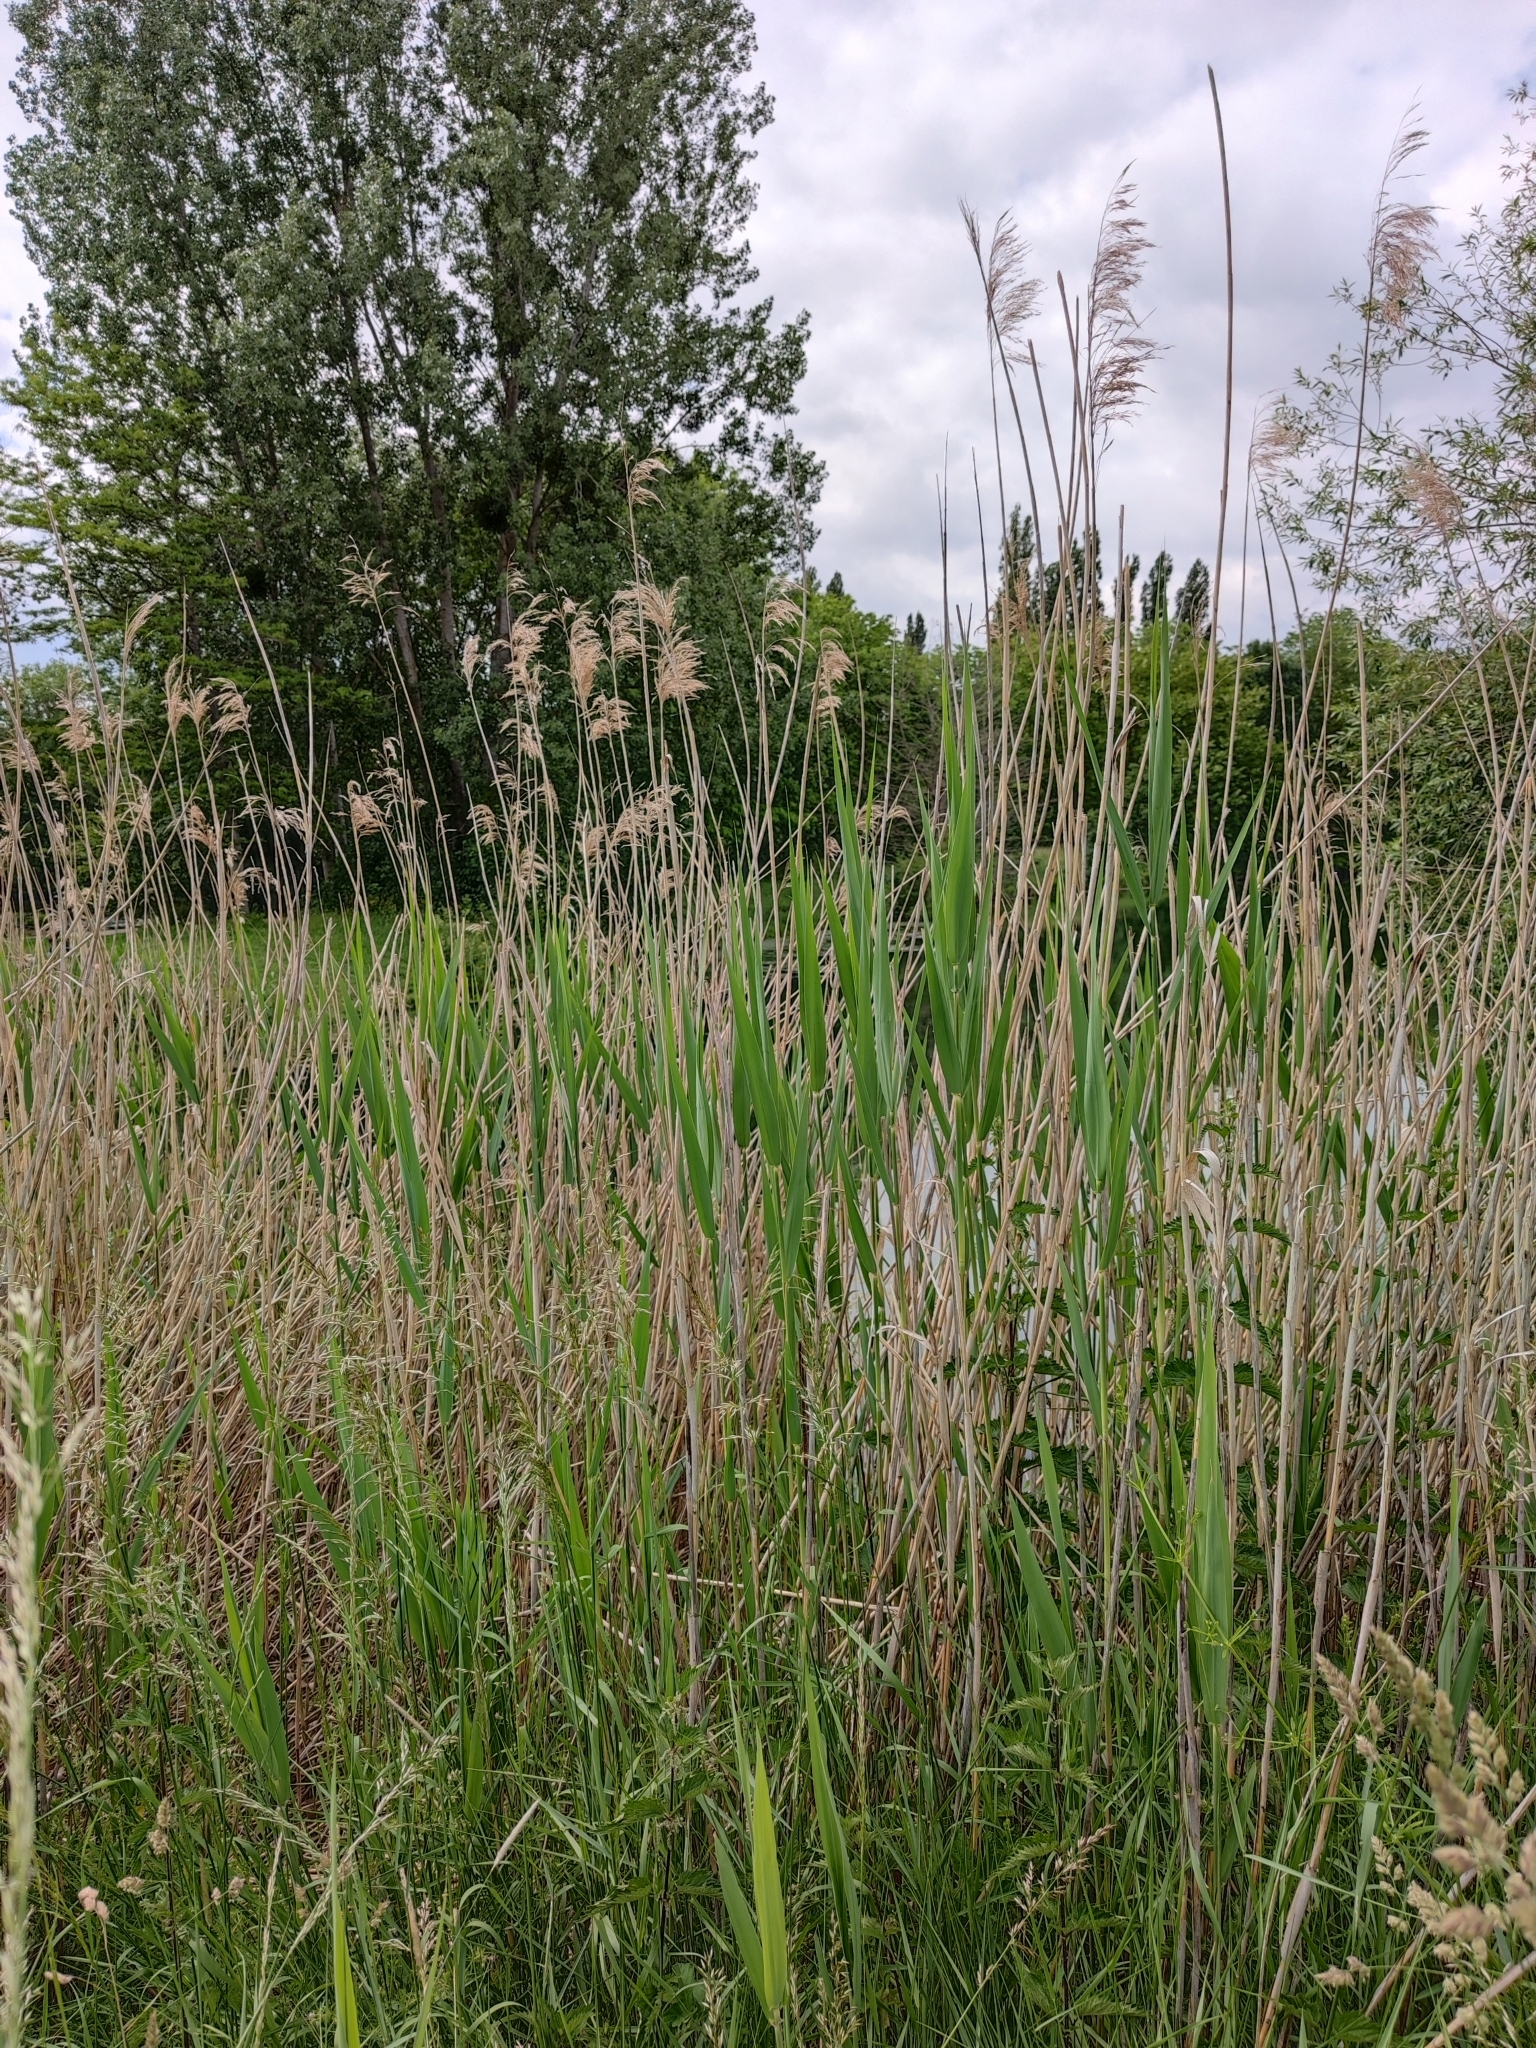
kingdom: Plantae
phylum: Tracheophyta
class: Liliopsida
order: Poales
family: Poaceae
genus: Phragmites
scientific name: Phragmites australis
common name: Common reed
